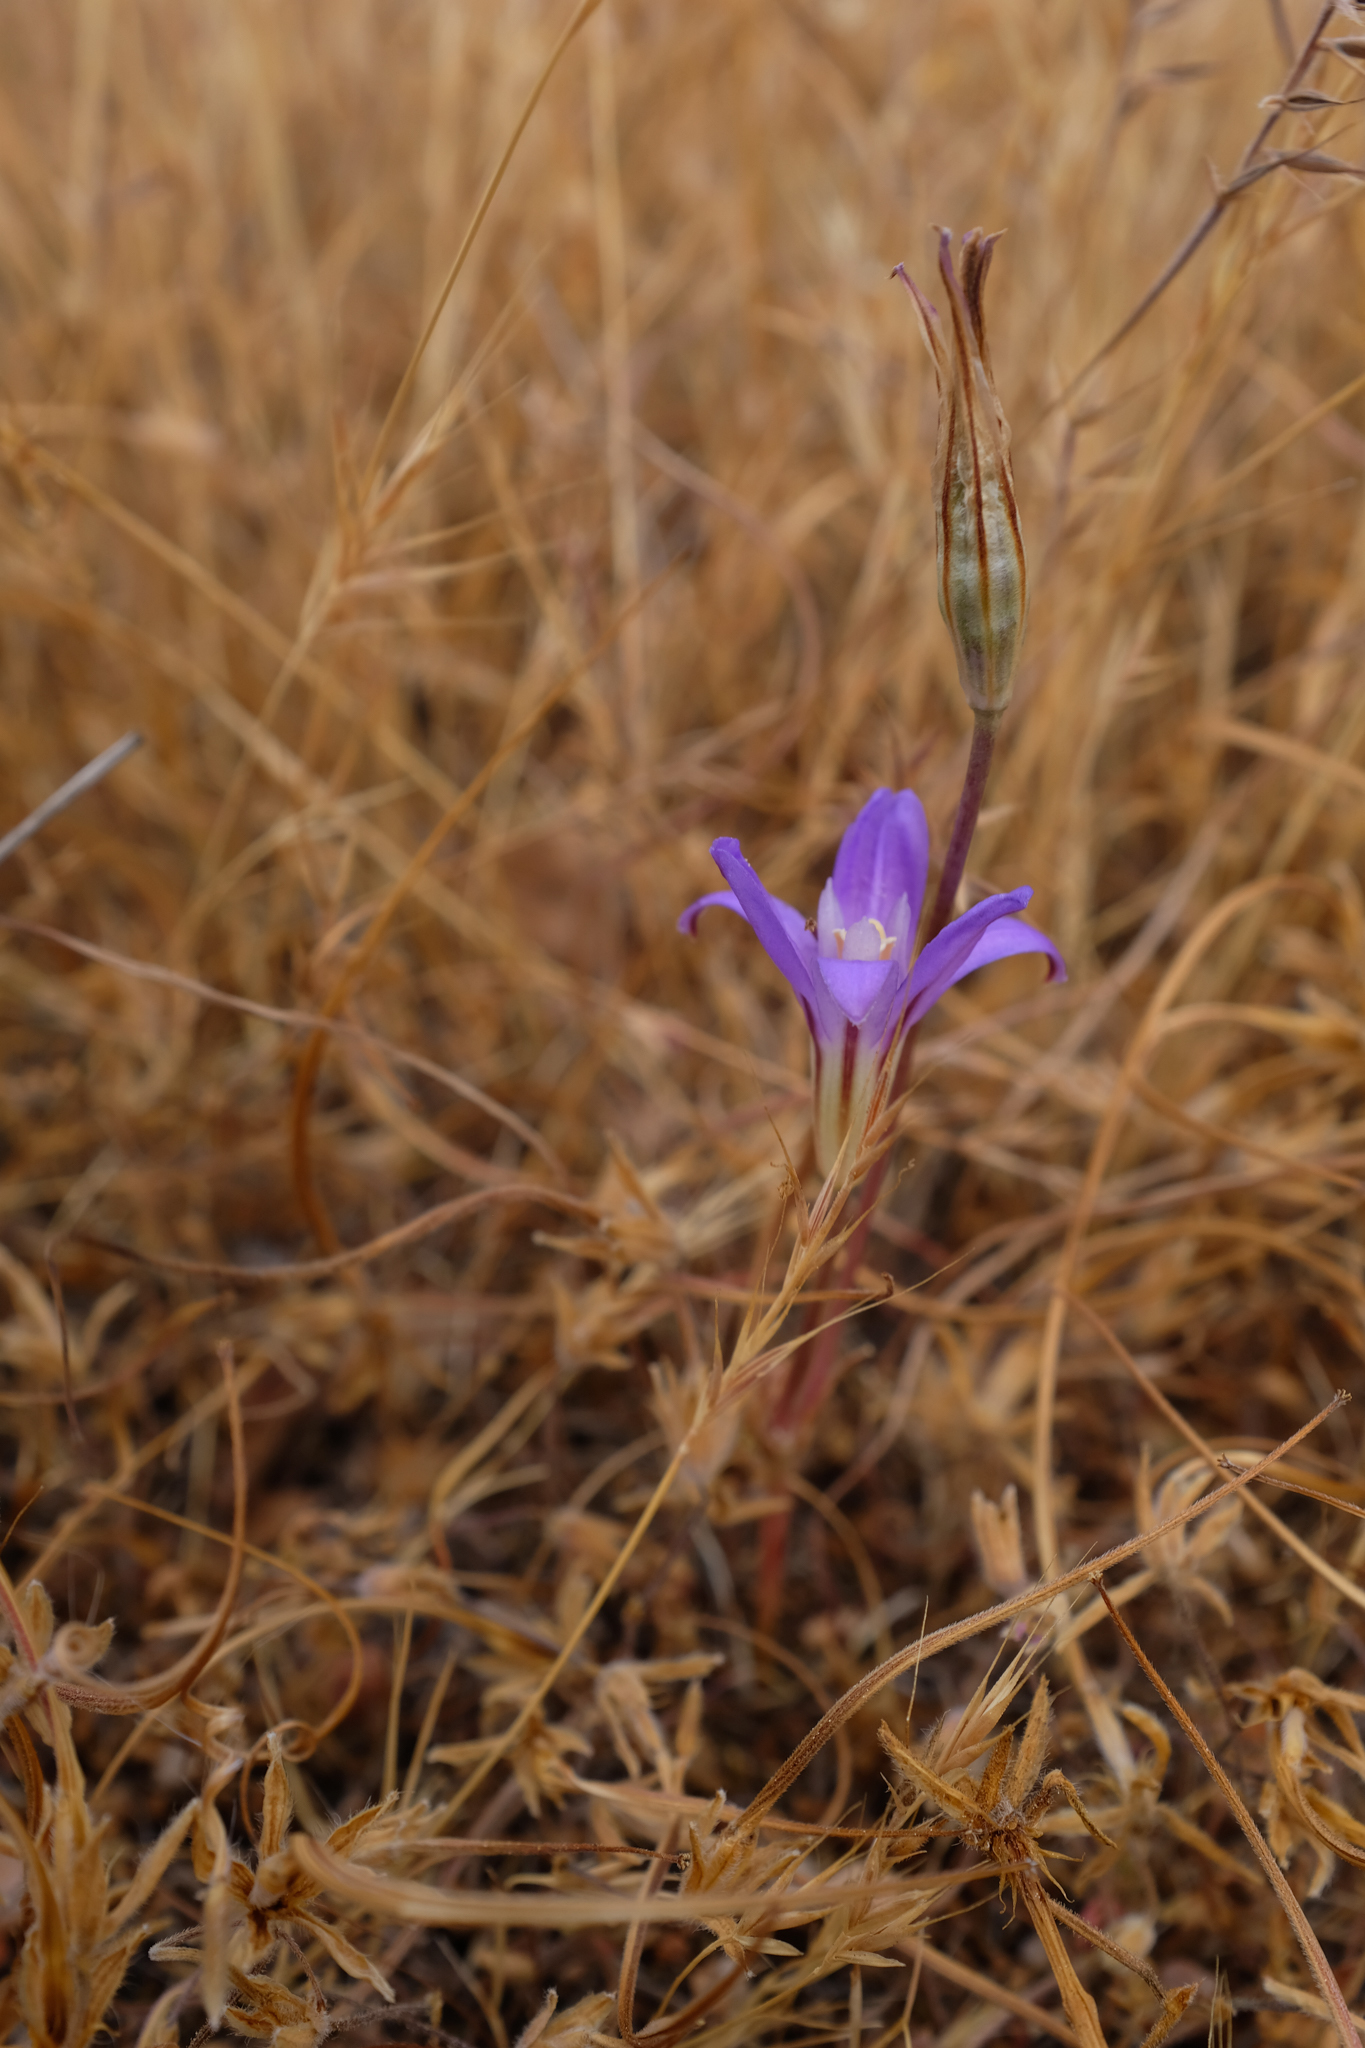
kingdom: Plantae
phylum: Tracheophyta
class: Liliopsida
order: Asparagales
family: Asparagaceae
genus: Brodiaea
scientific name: Brodiaea terrestris
